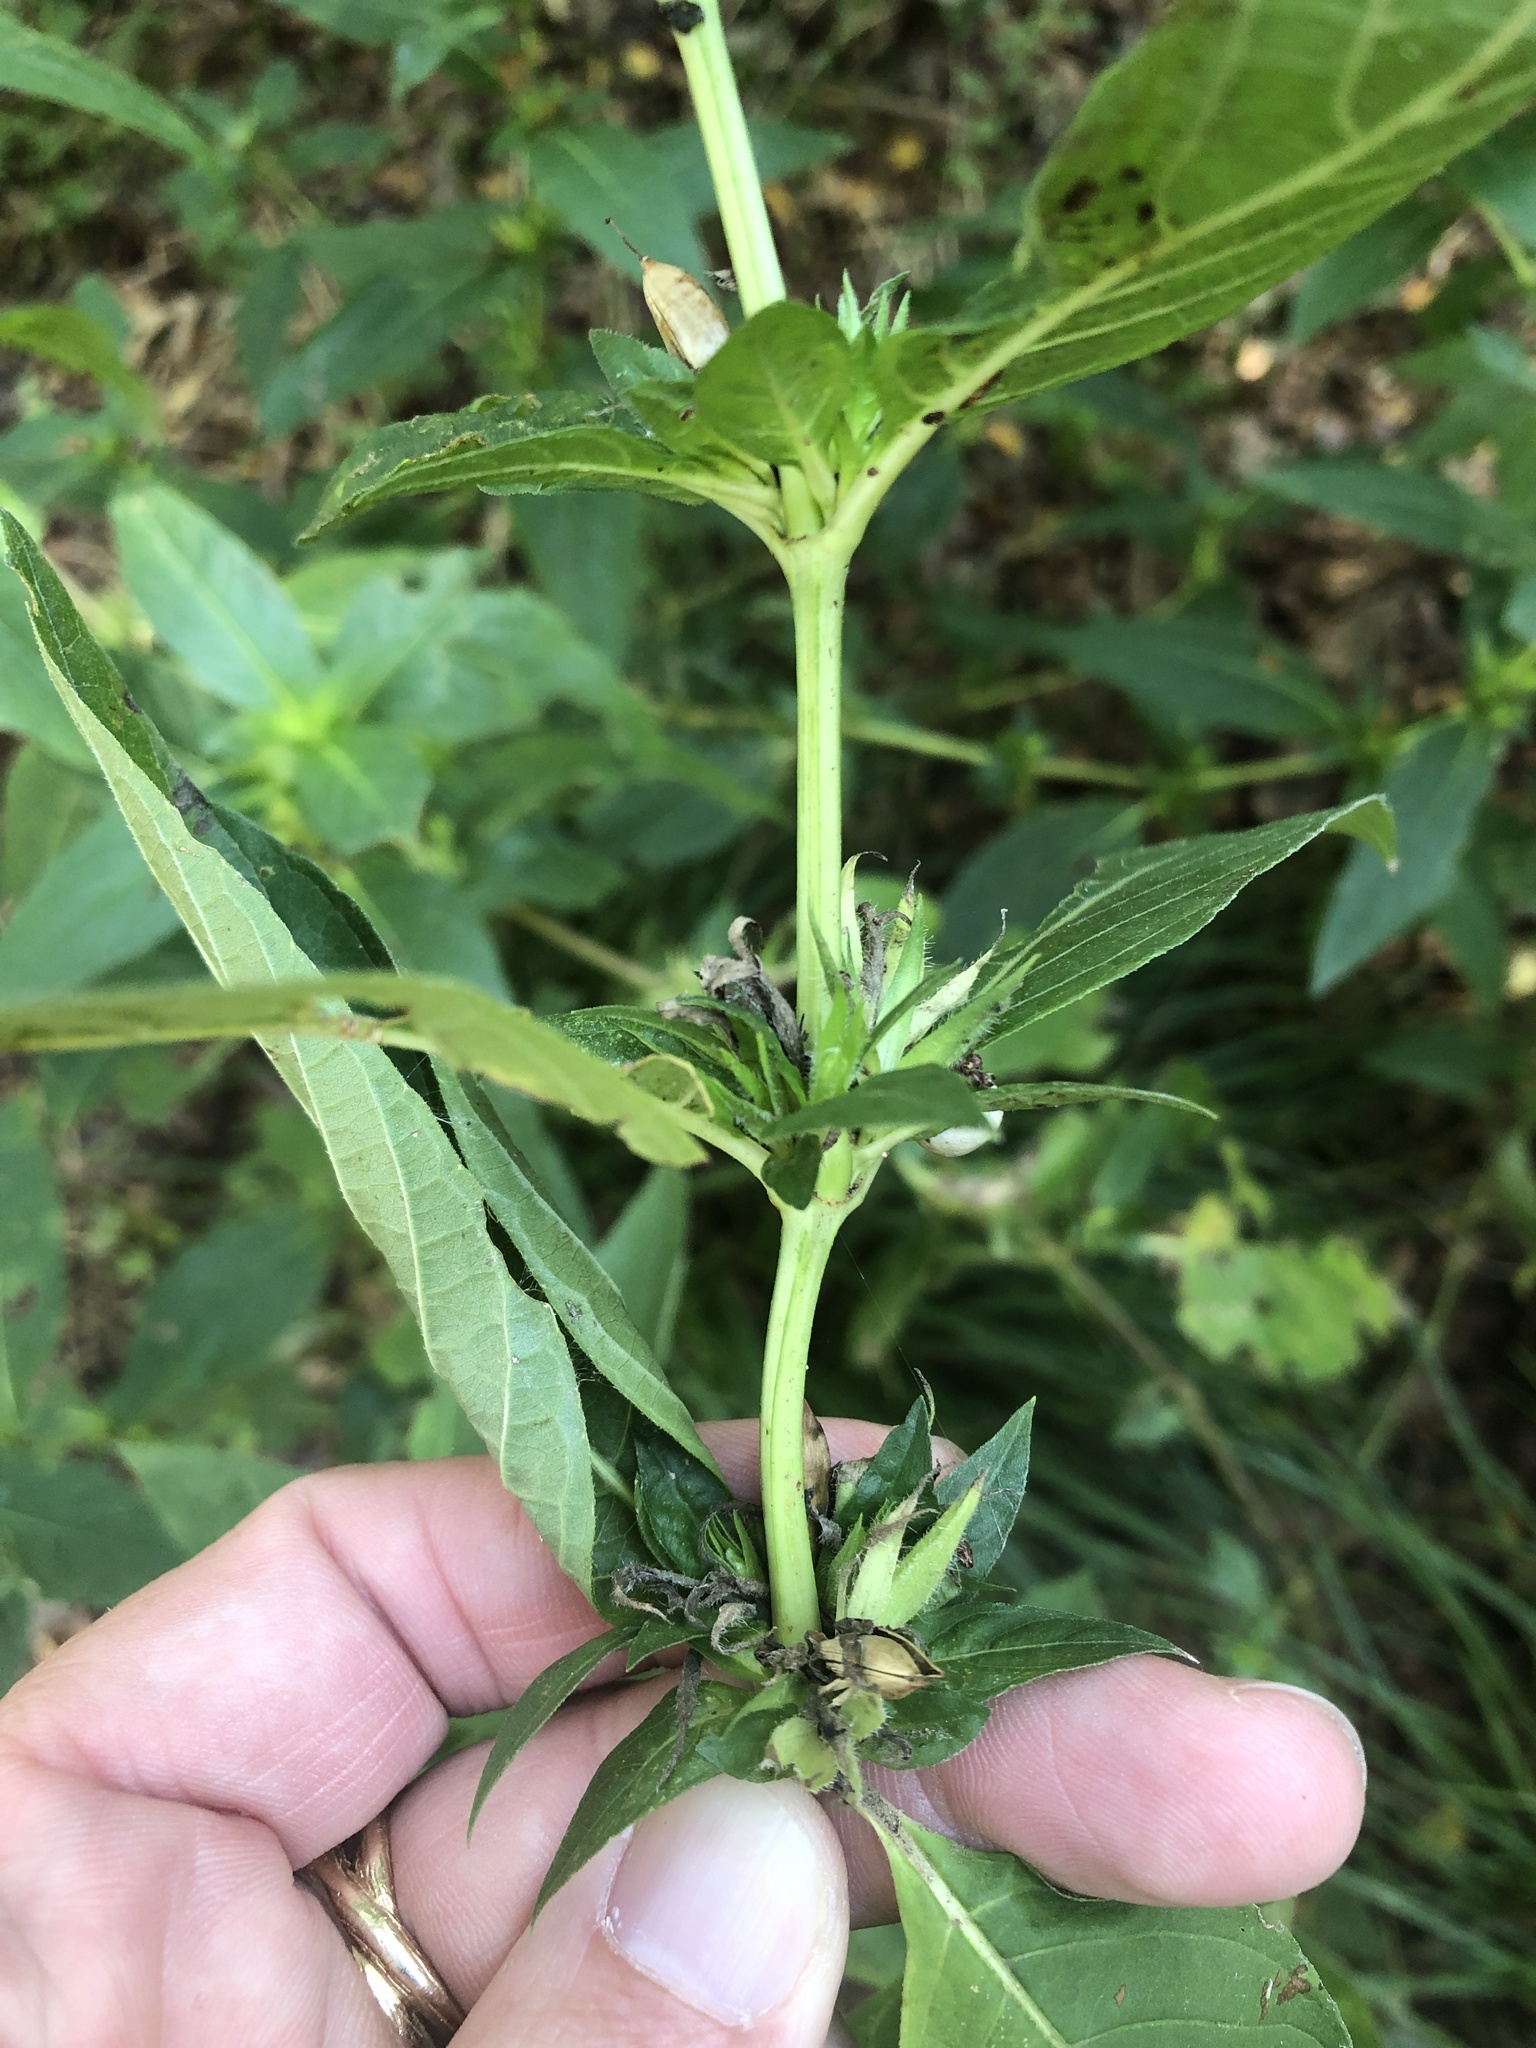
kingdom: Plantae
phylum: Tracheophyta
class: Magnoliopsida
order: Lamiales
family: Acanthaceae
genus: Ruellia
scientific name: Ruellia strepens
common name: Limestone wild petunia
